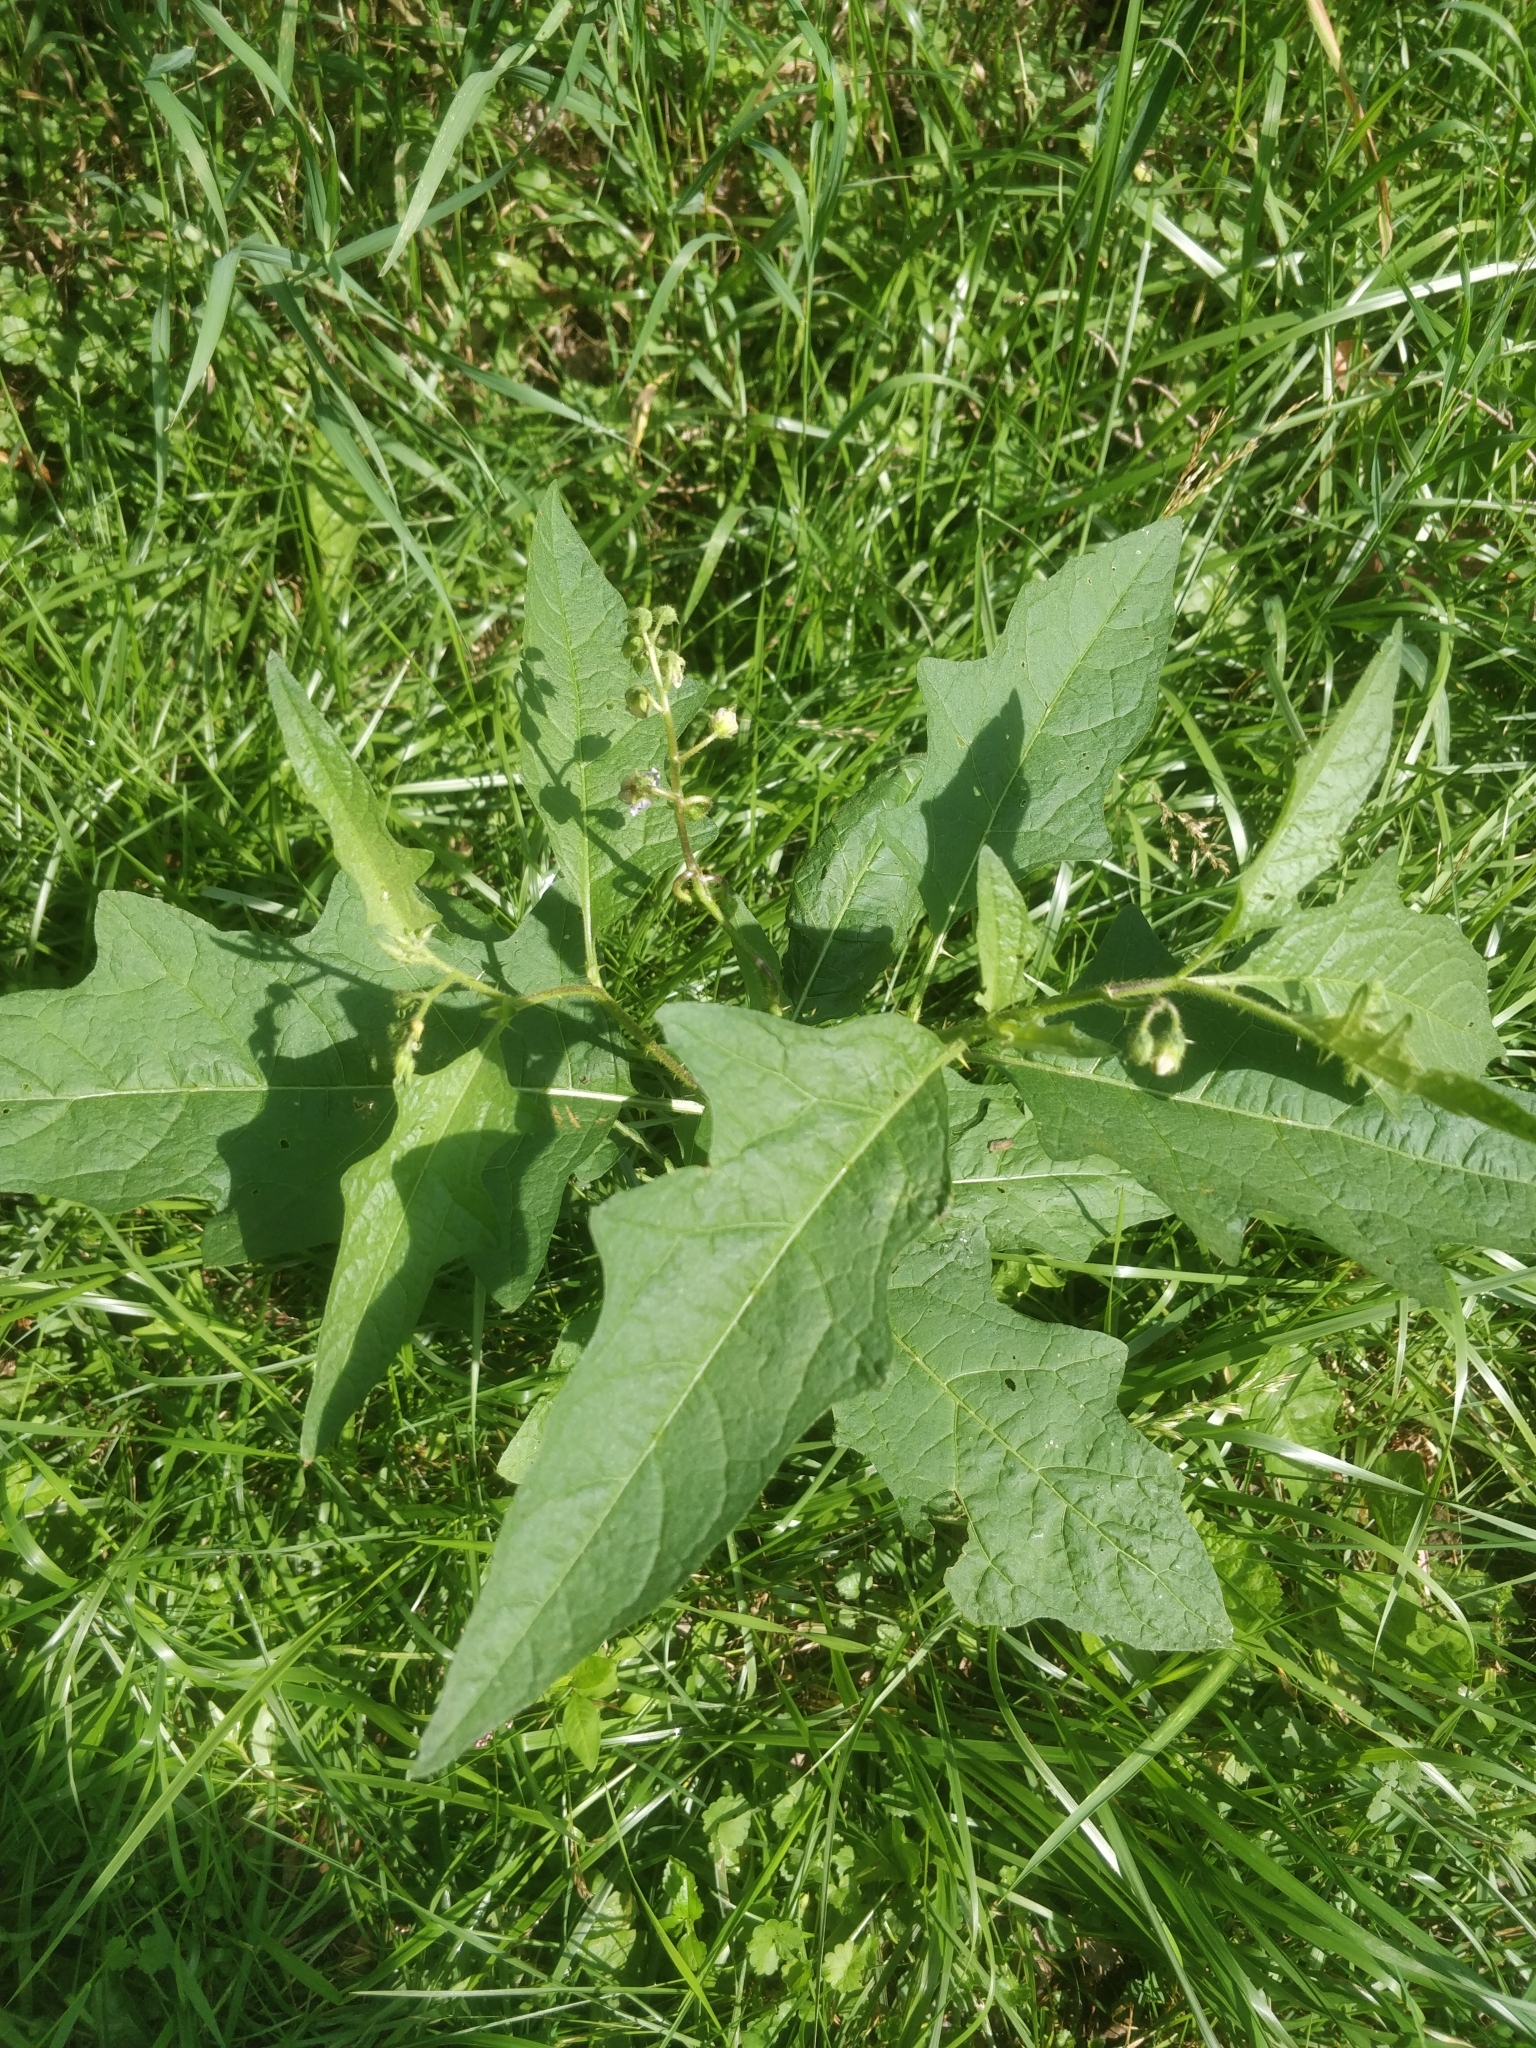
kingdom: Plantae
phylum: Tracheophyta
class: Magnoliopsida
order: Solanales
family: Solanaceae
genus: Solanum
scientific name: Solanum carolinense
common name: Horse-nettle
